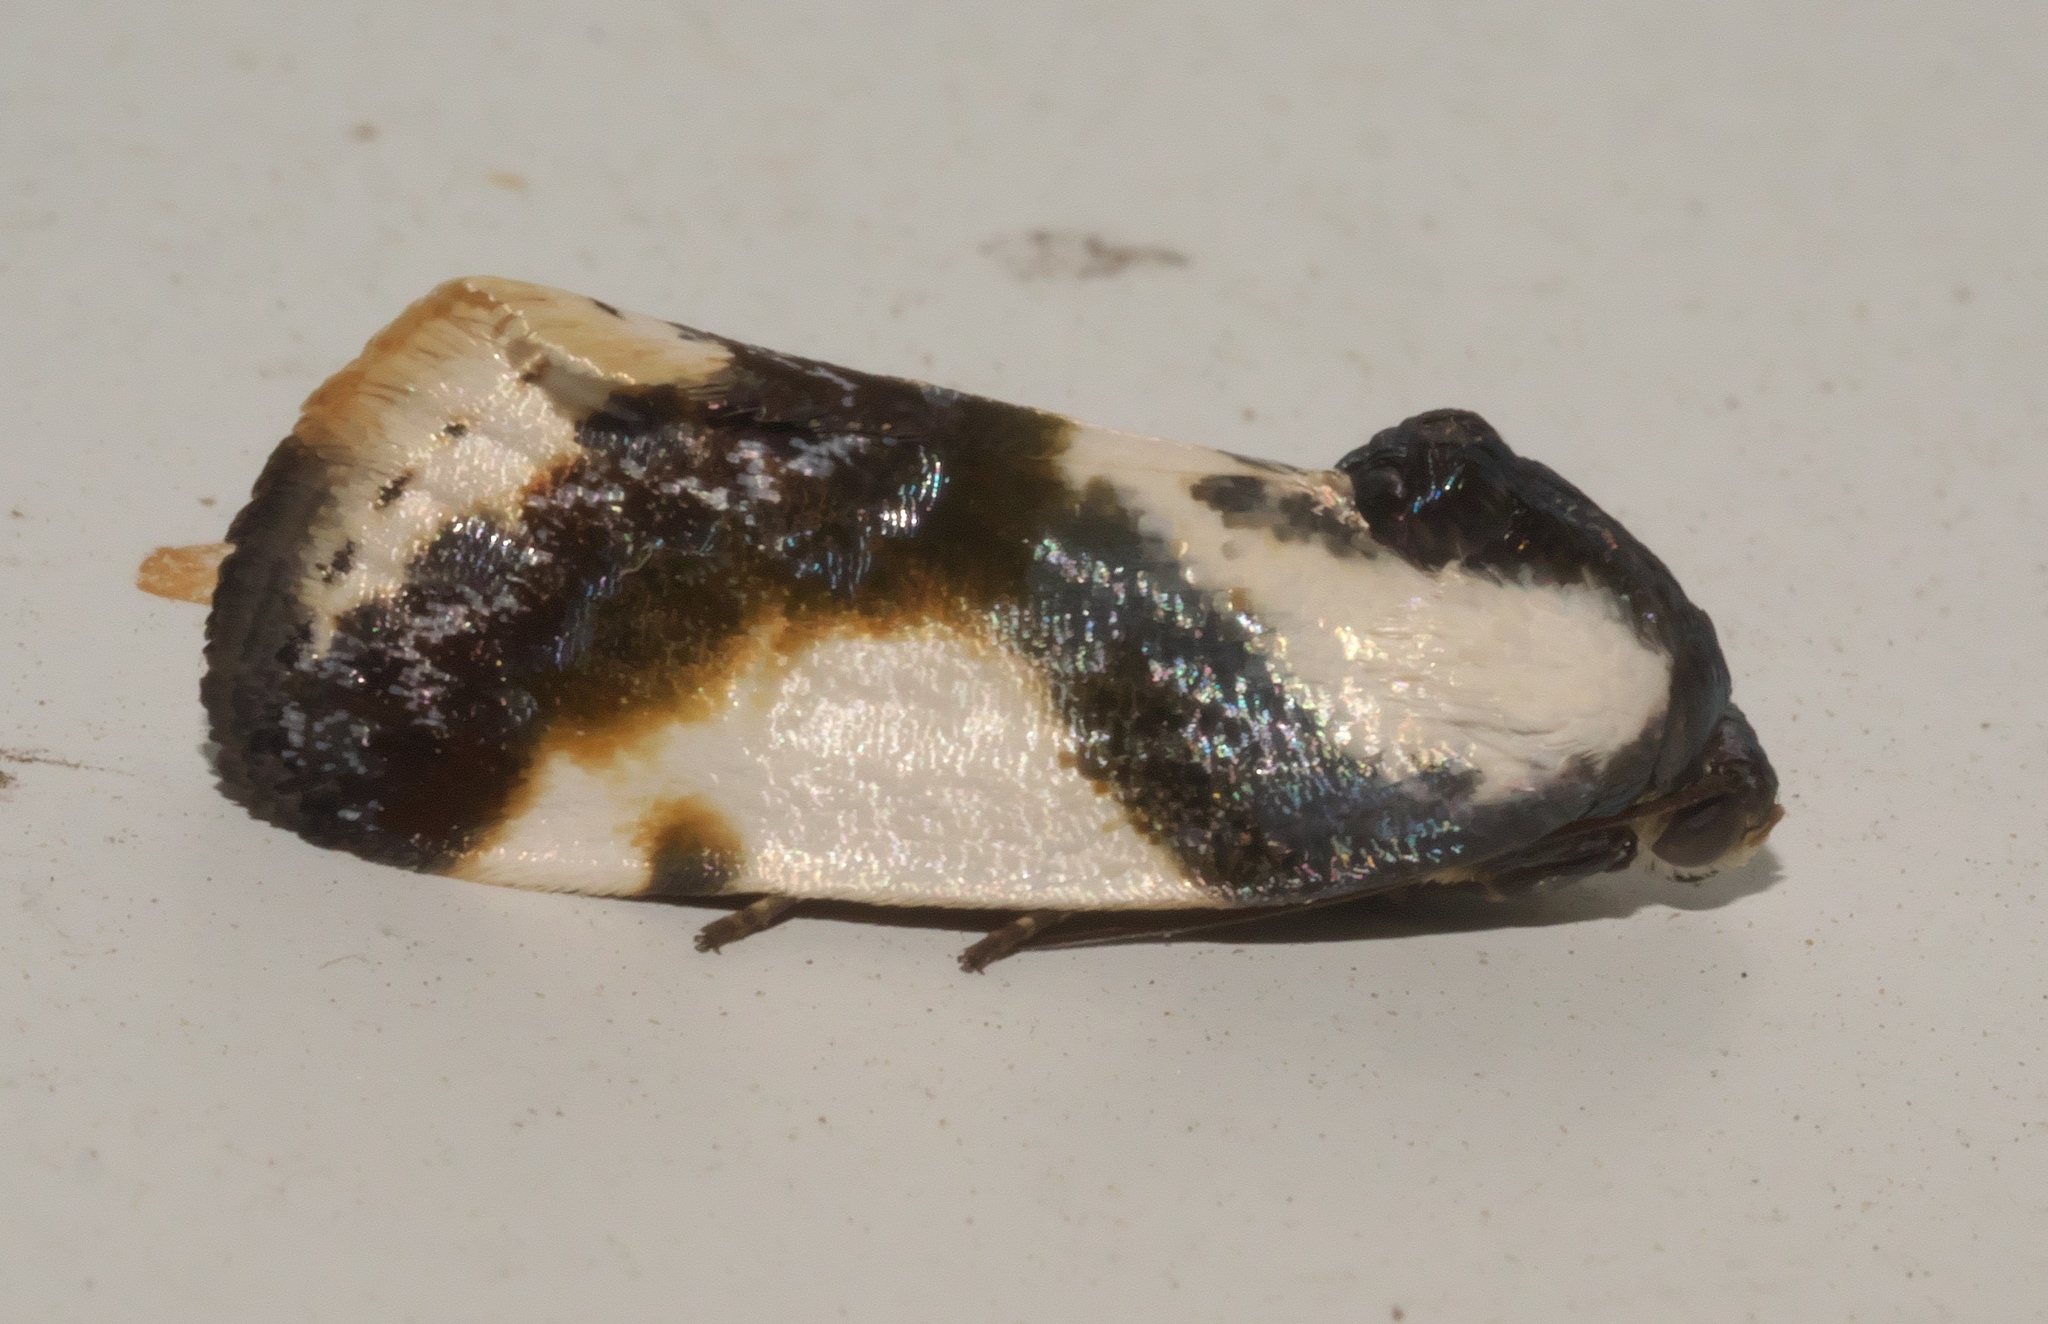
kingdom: Animalia
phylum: Arthropoda
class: Insecta
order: Lepidoptera
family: Noctuidae
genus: Acontia
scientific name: Acontia delecta
